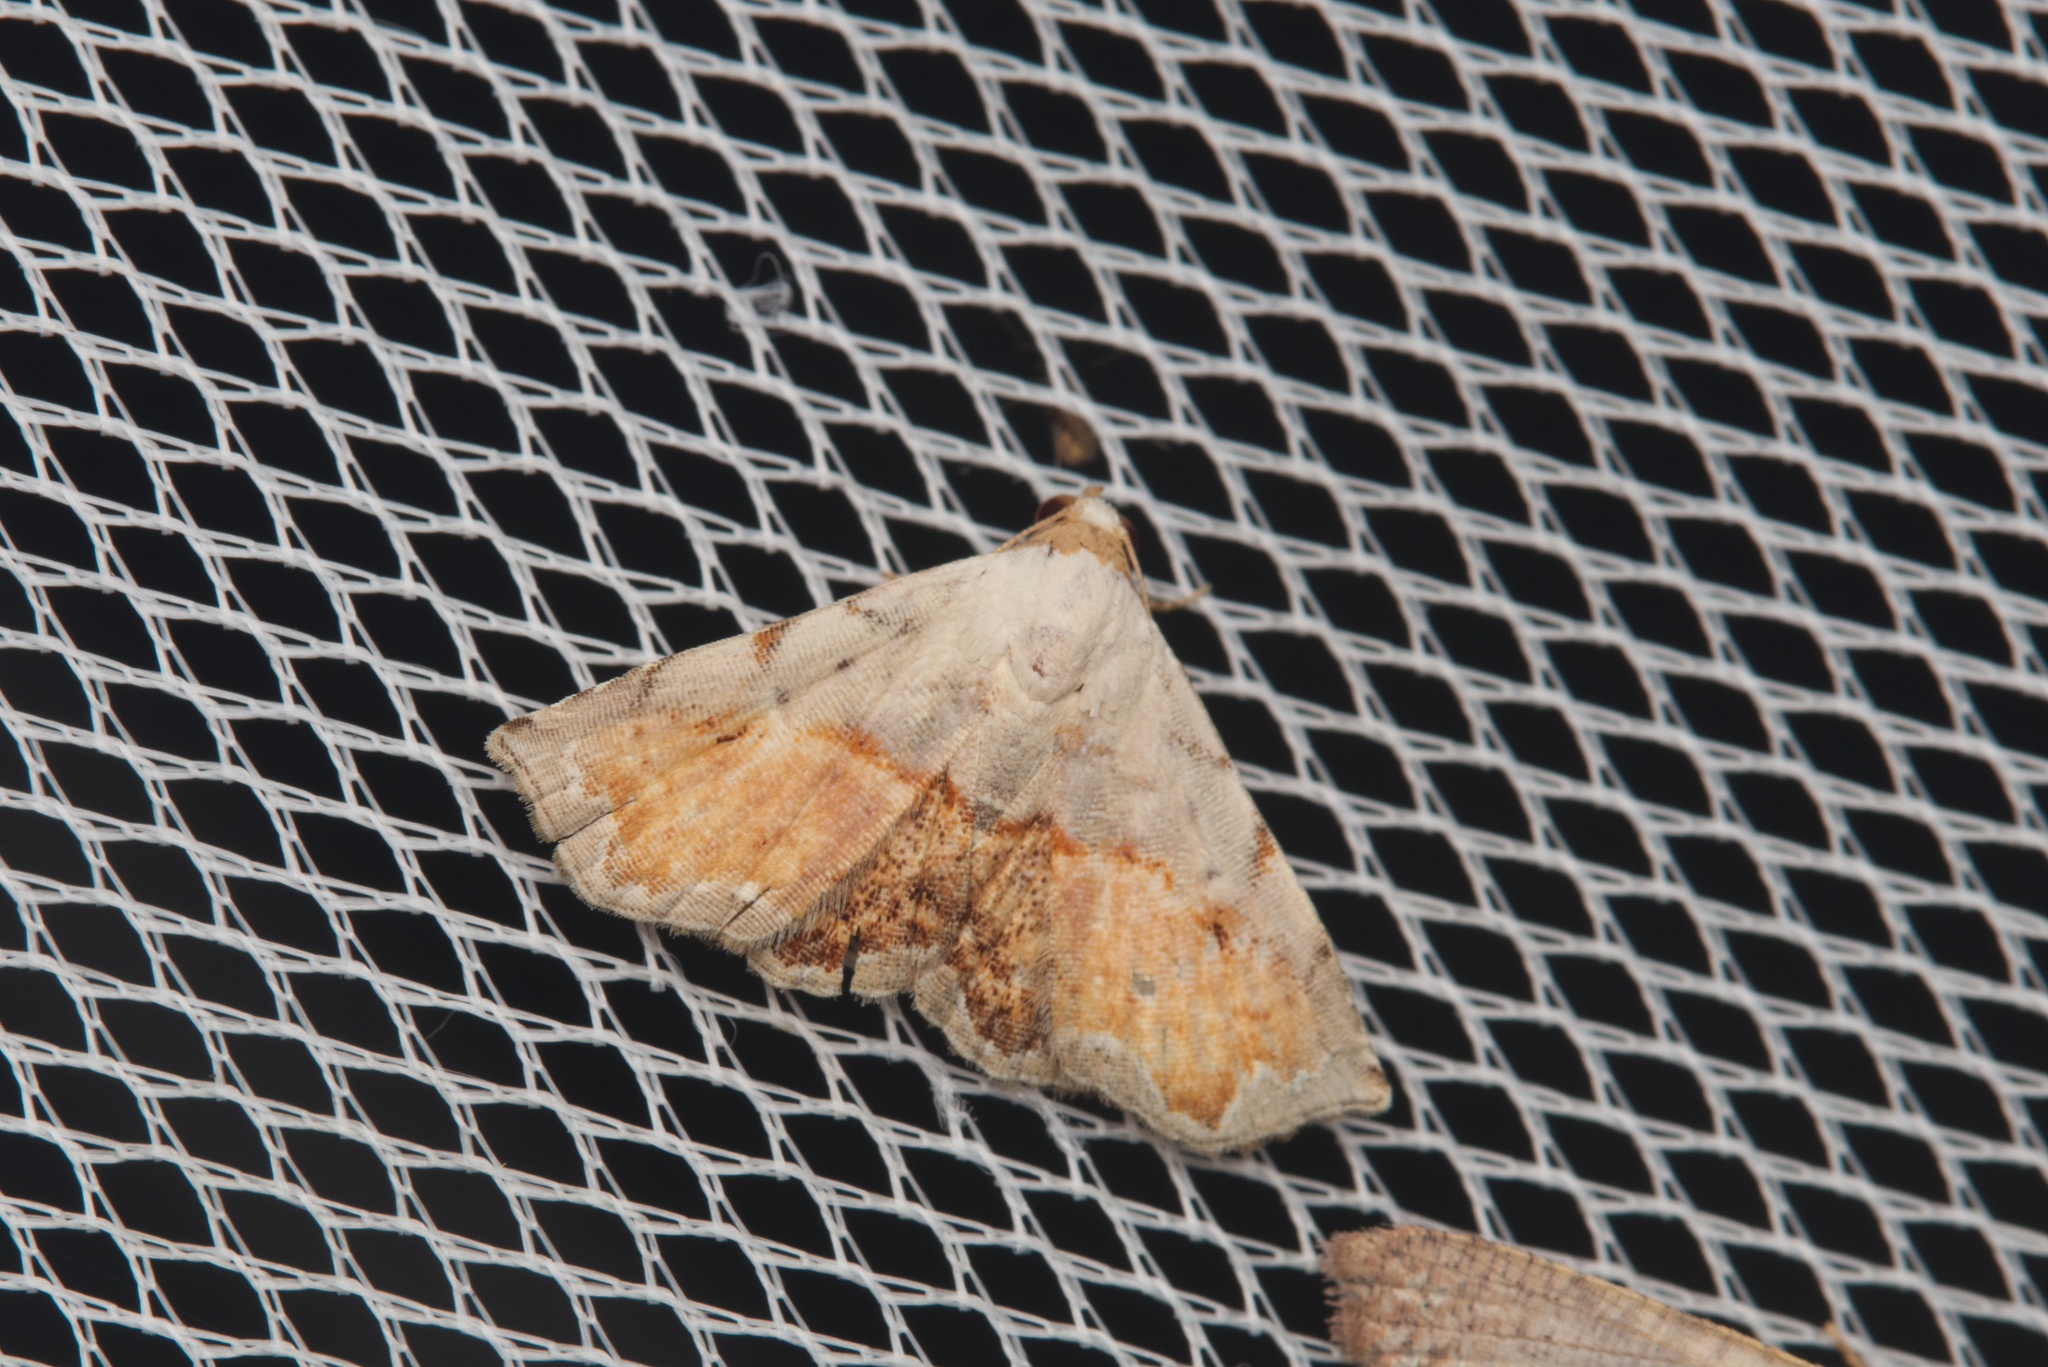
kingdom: Animalia
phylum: Arthropoda
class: Insecta
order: Lepidoptera
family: Noctuidae
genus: Eublemma
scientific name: Eublemma
